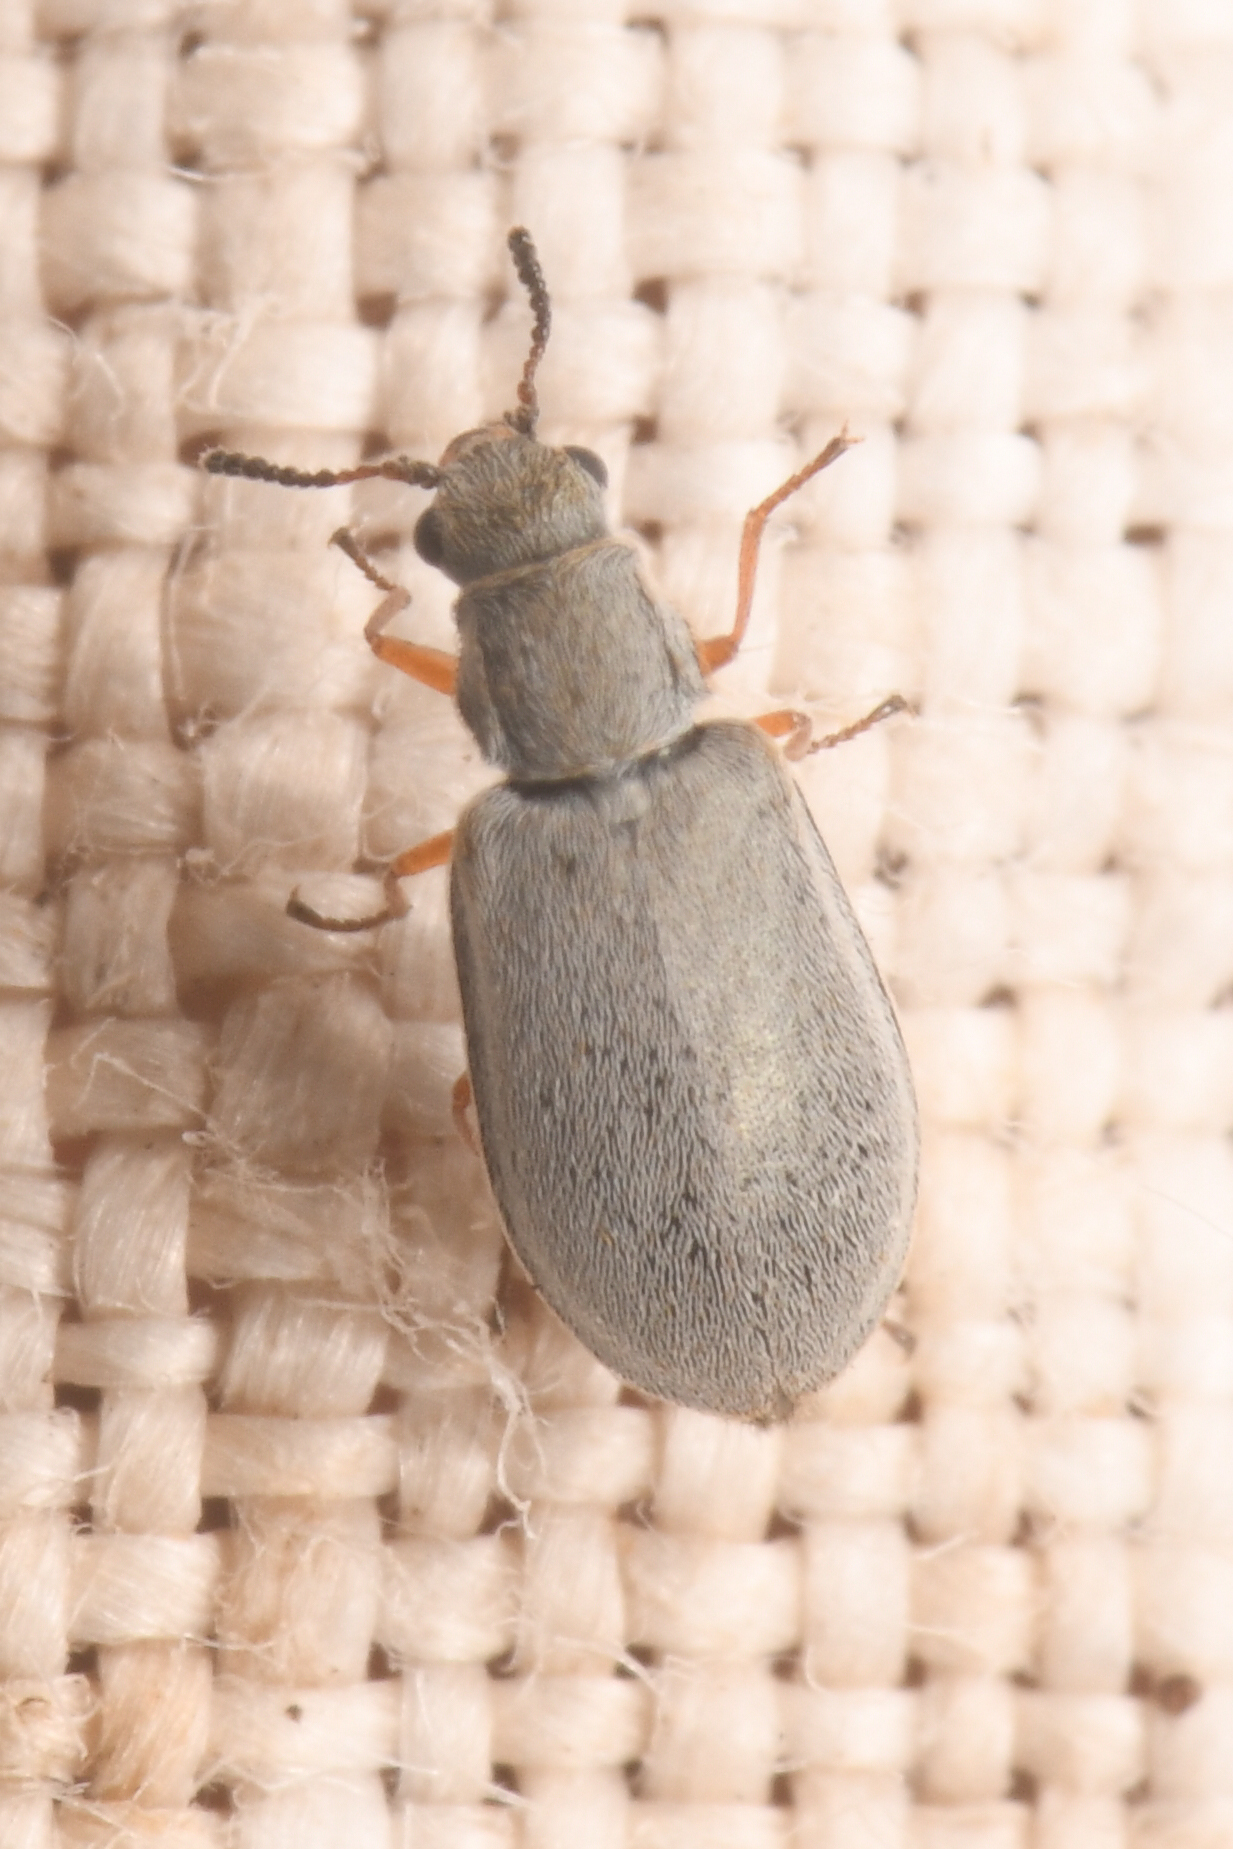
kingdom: Animalia
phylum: Arthropoda
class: Insecta
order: Coleoptera
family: Melyridae
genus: Vecturoides
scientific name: Vecturoides
